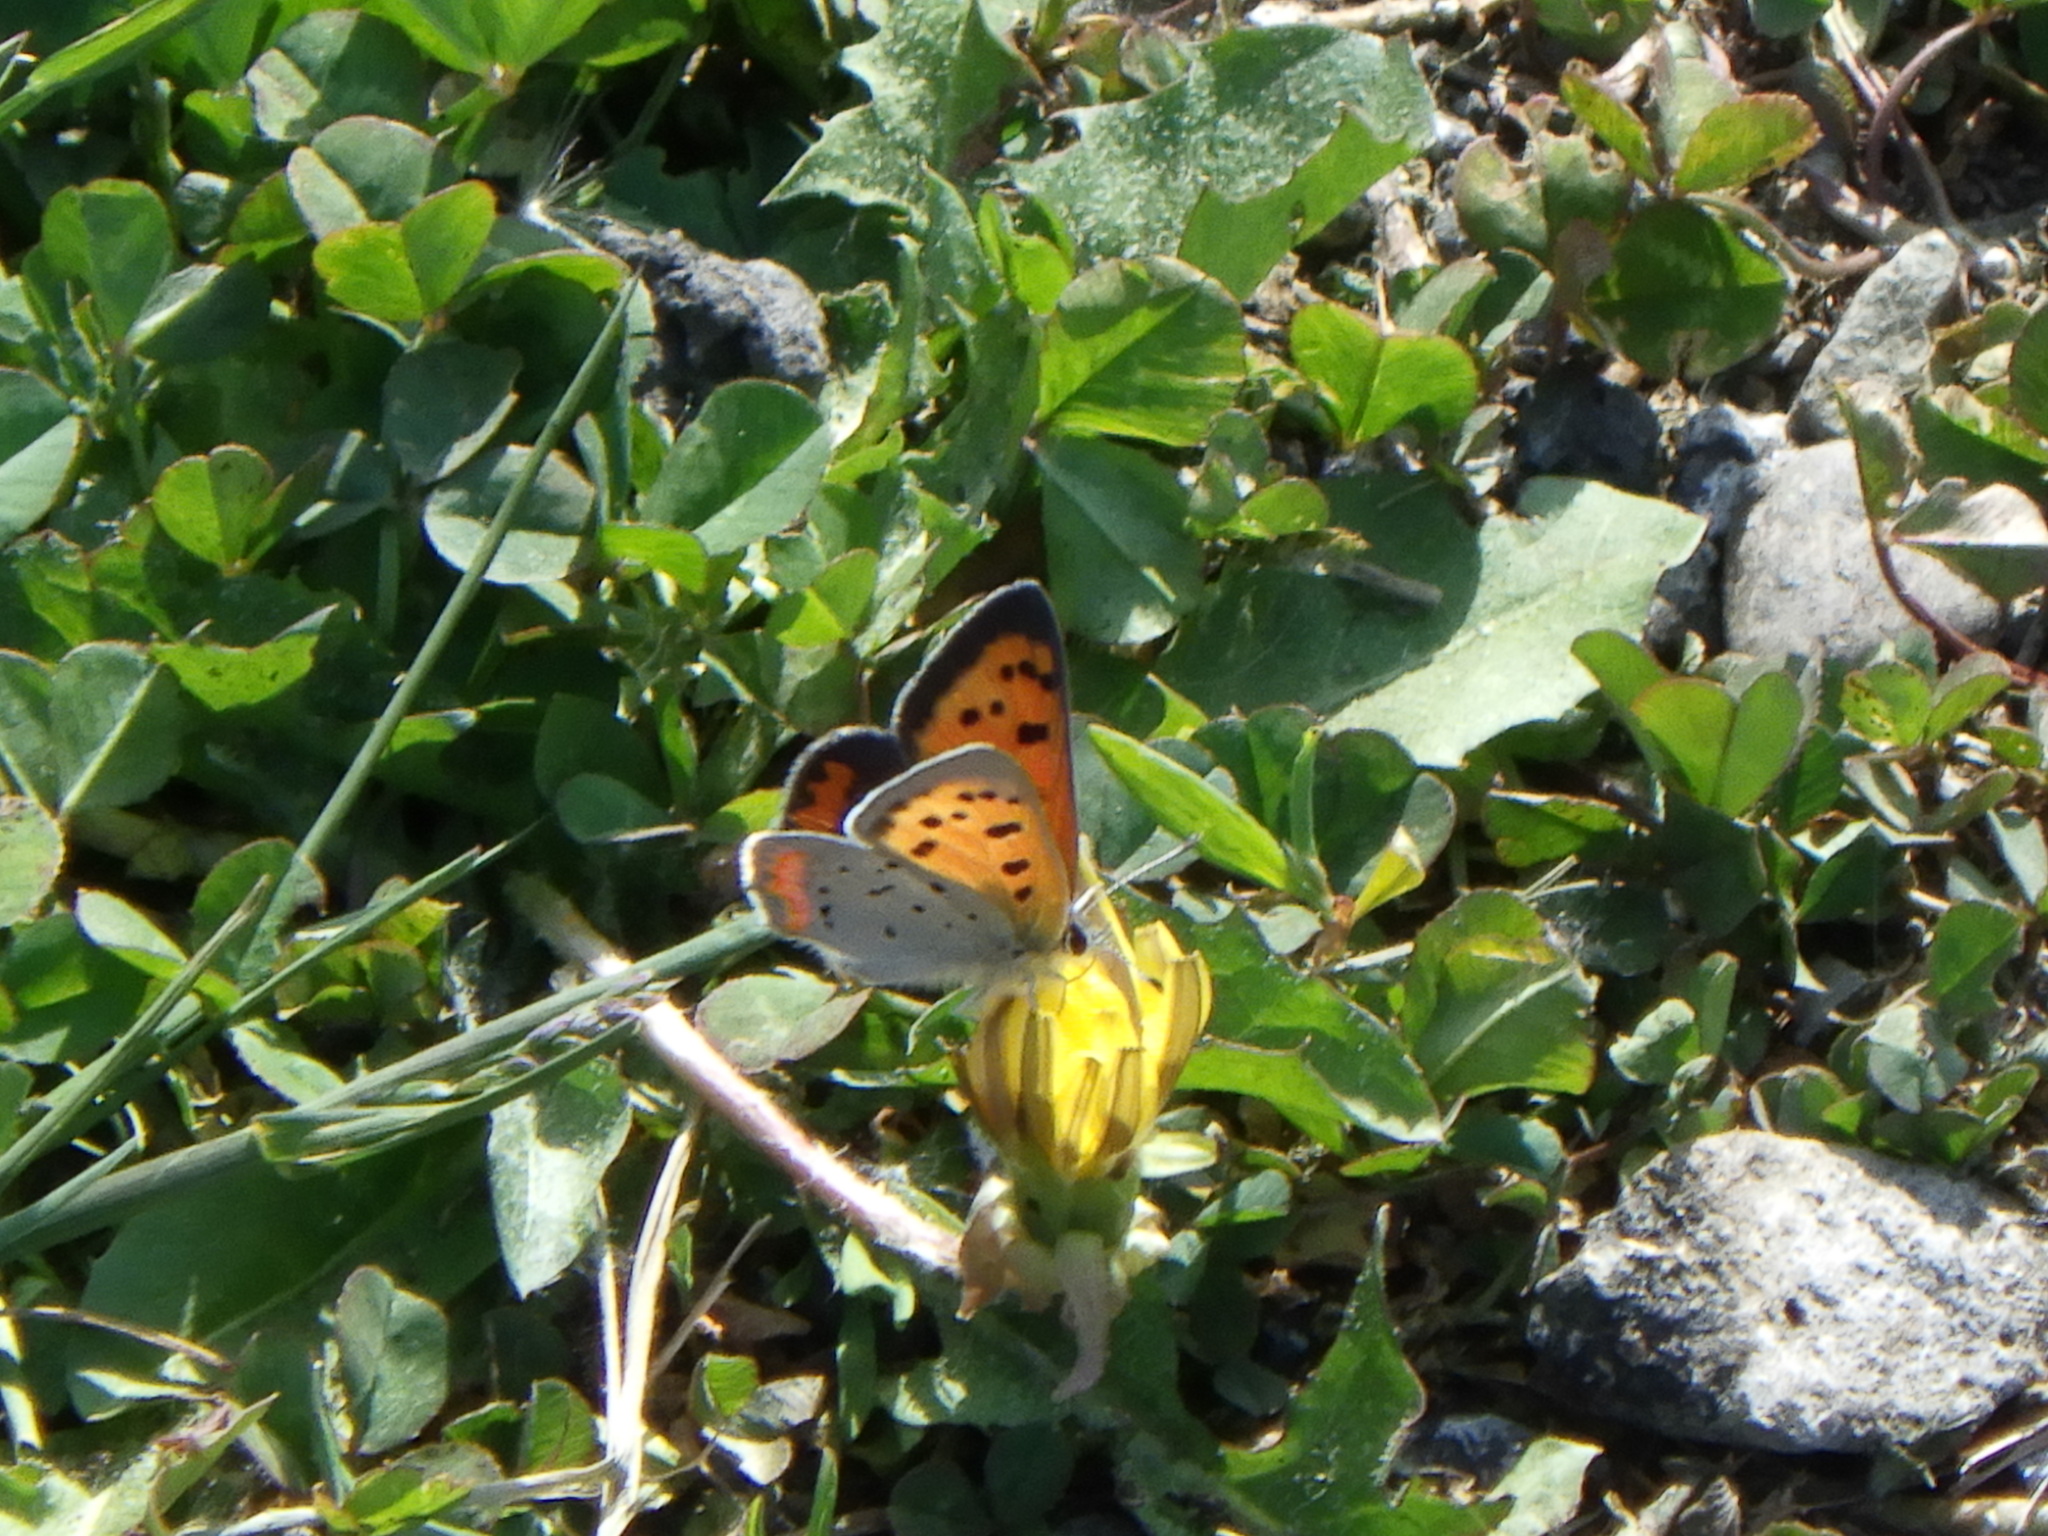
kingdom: Animalia
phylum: Arthropoda
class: Insecta
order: Lepidoptera
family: Lycaenidae
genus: Lycaena
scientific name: Lycaena hypophlaeas
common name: American copper
